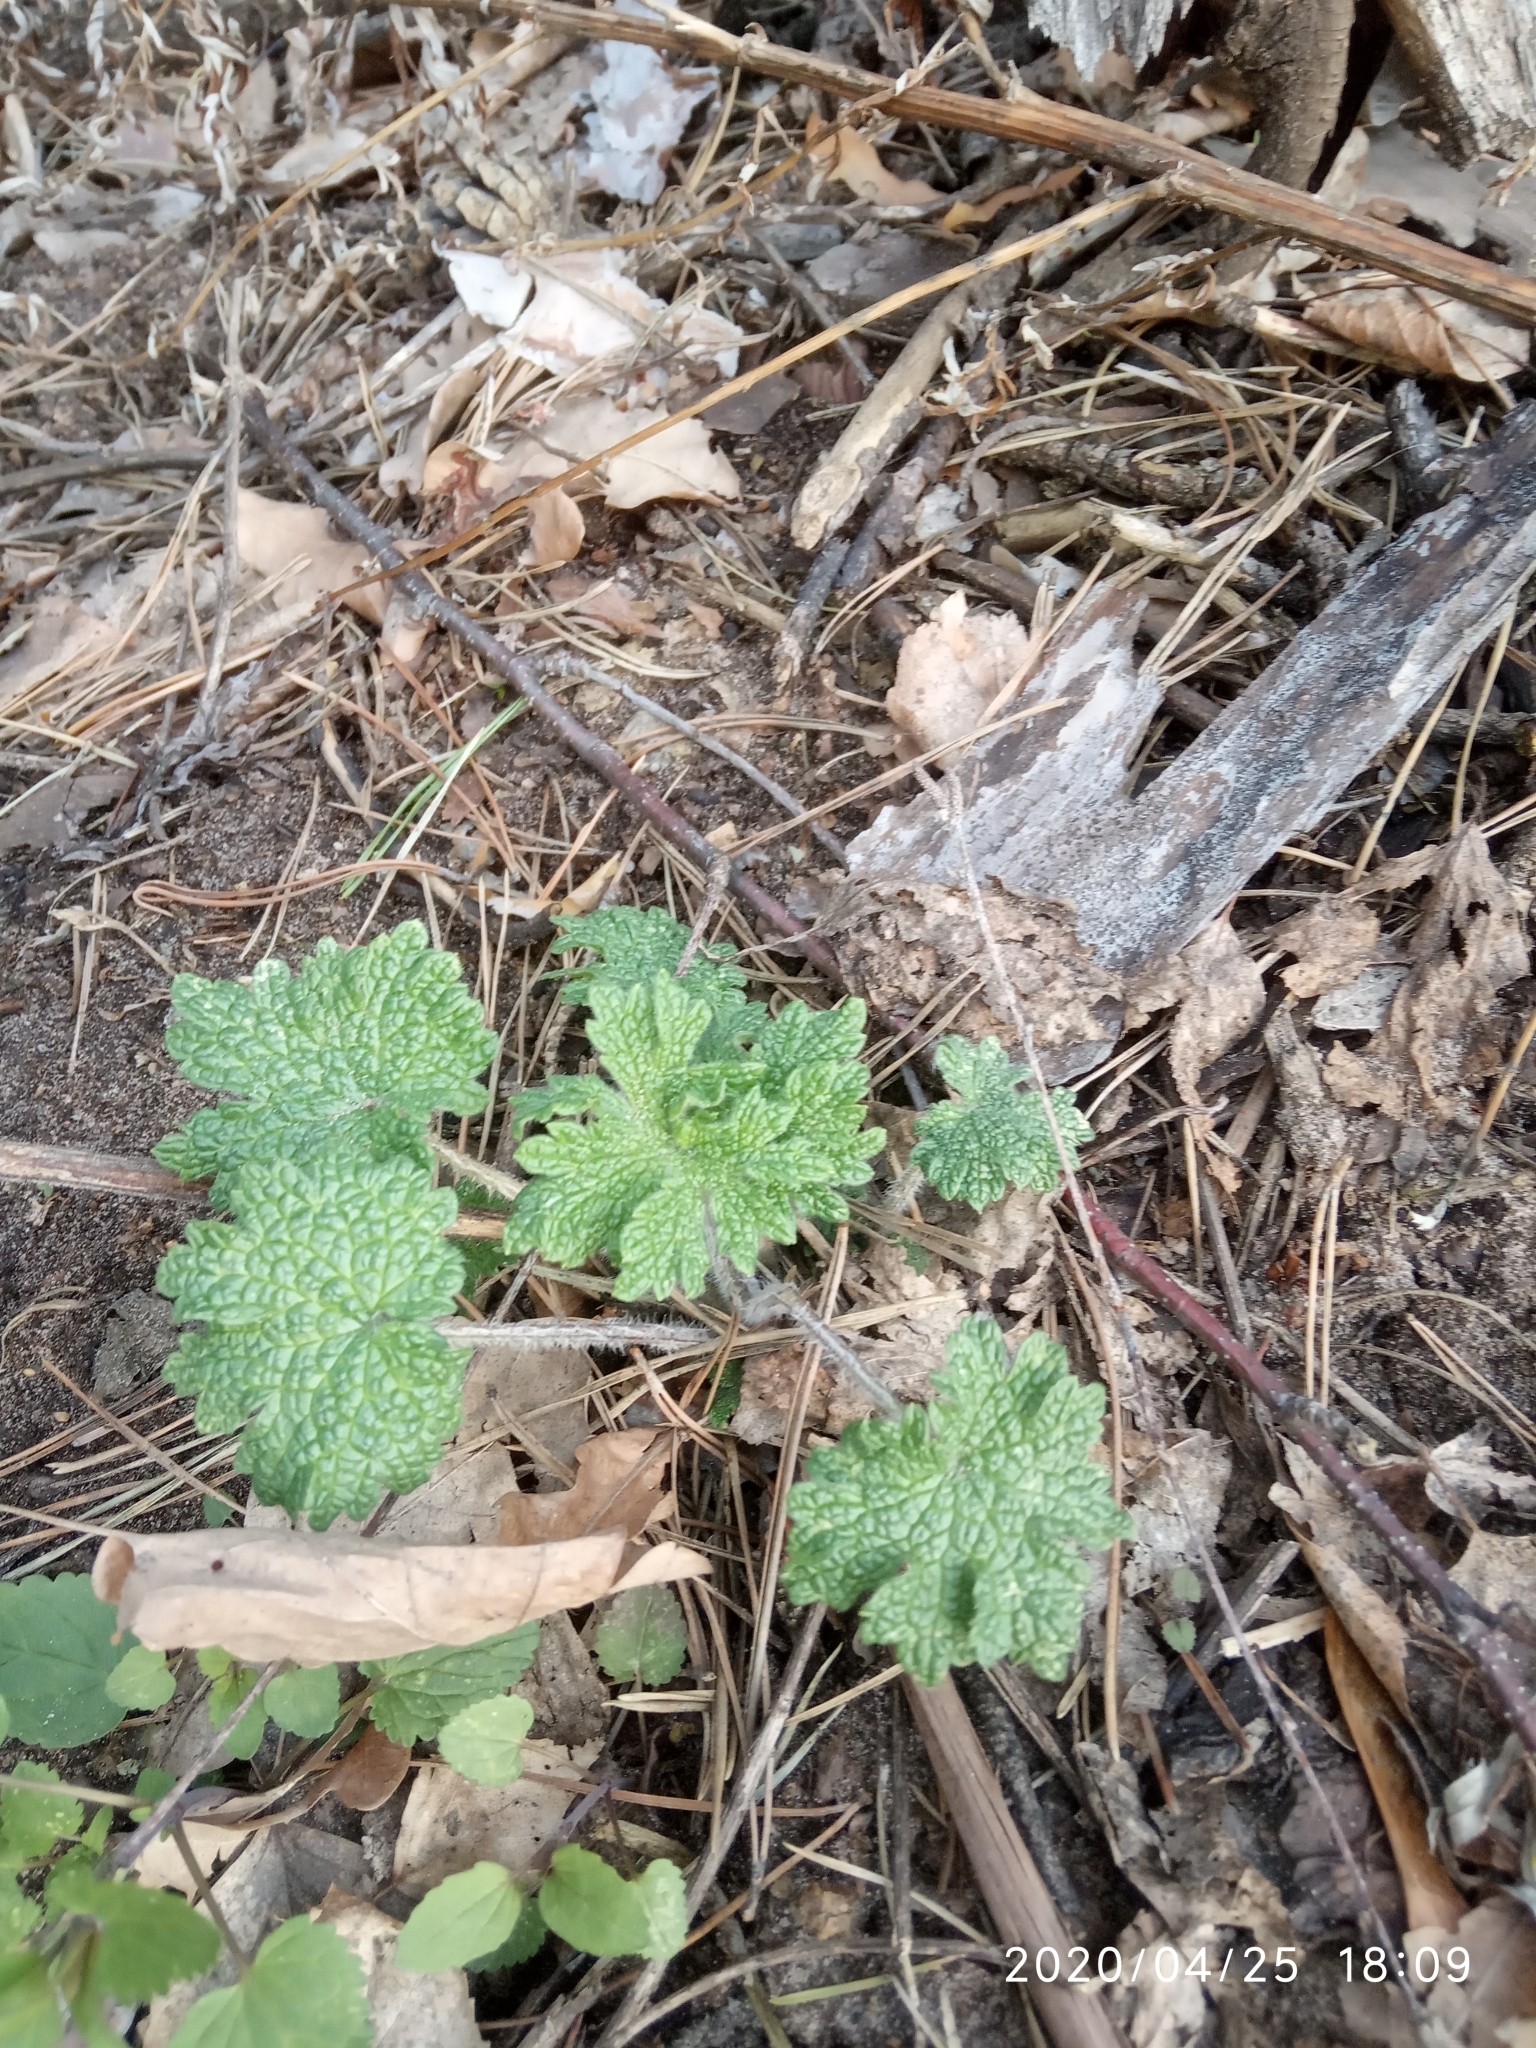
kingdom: Plantae
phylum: Tracheophyta
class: Magnoliopsida
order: Lamiales
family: Lamiaceae
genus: Leonurus
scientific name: Leonurus quinquelobatus
